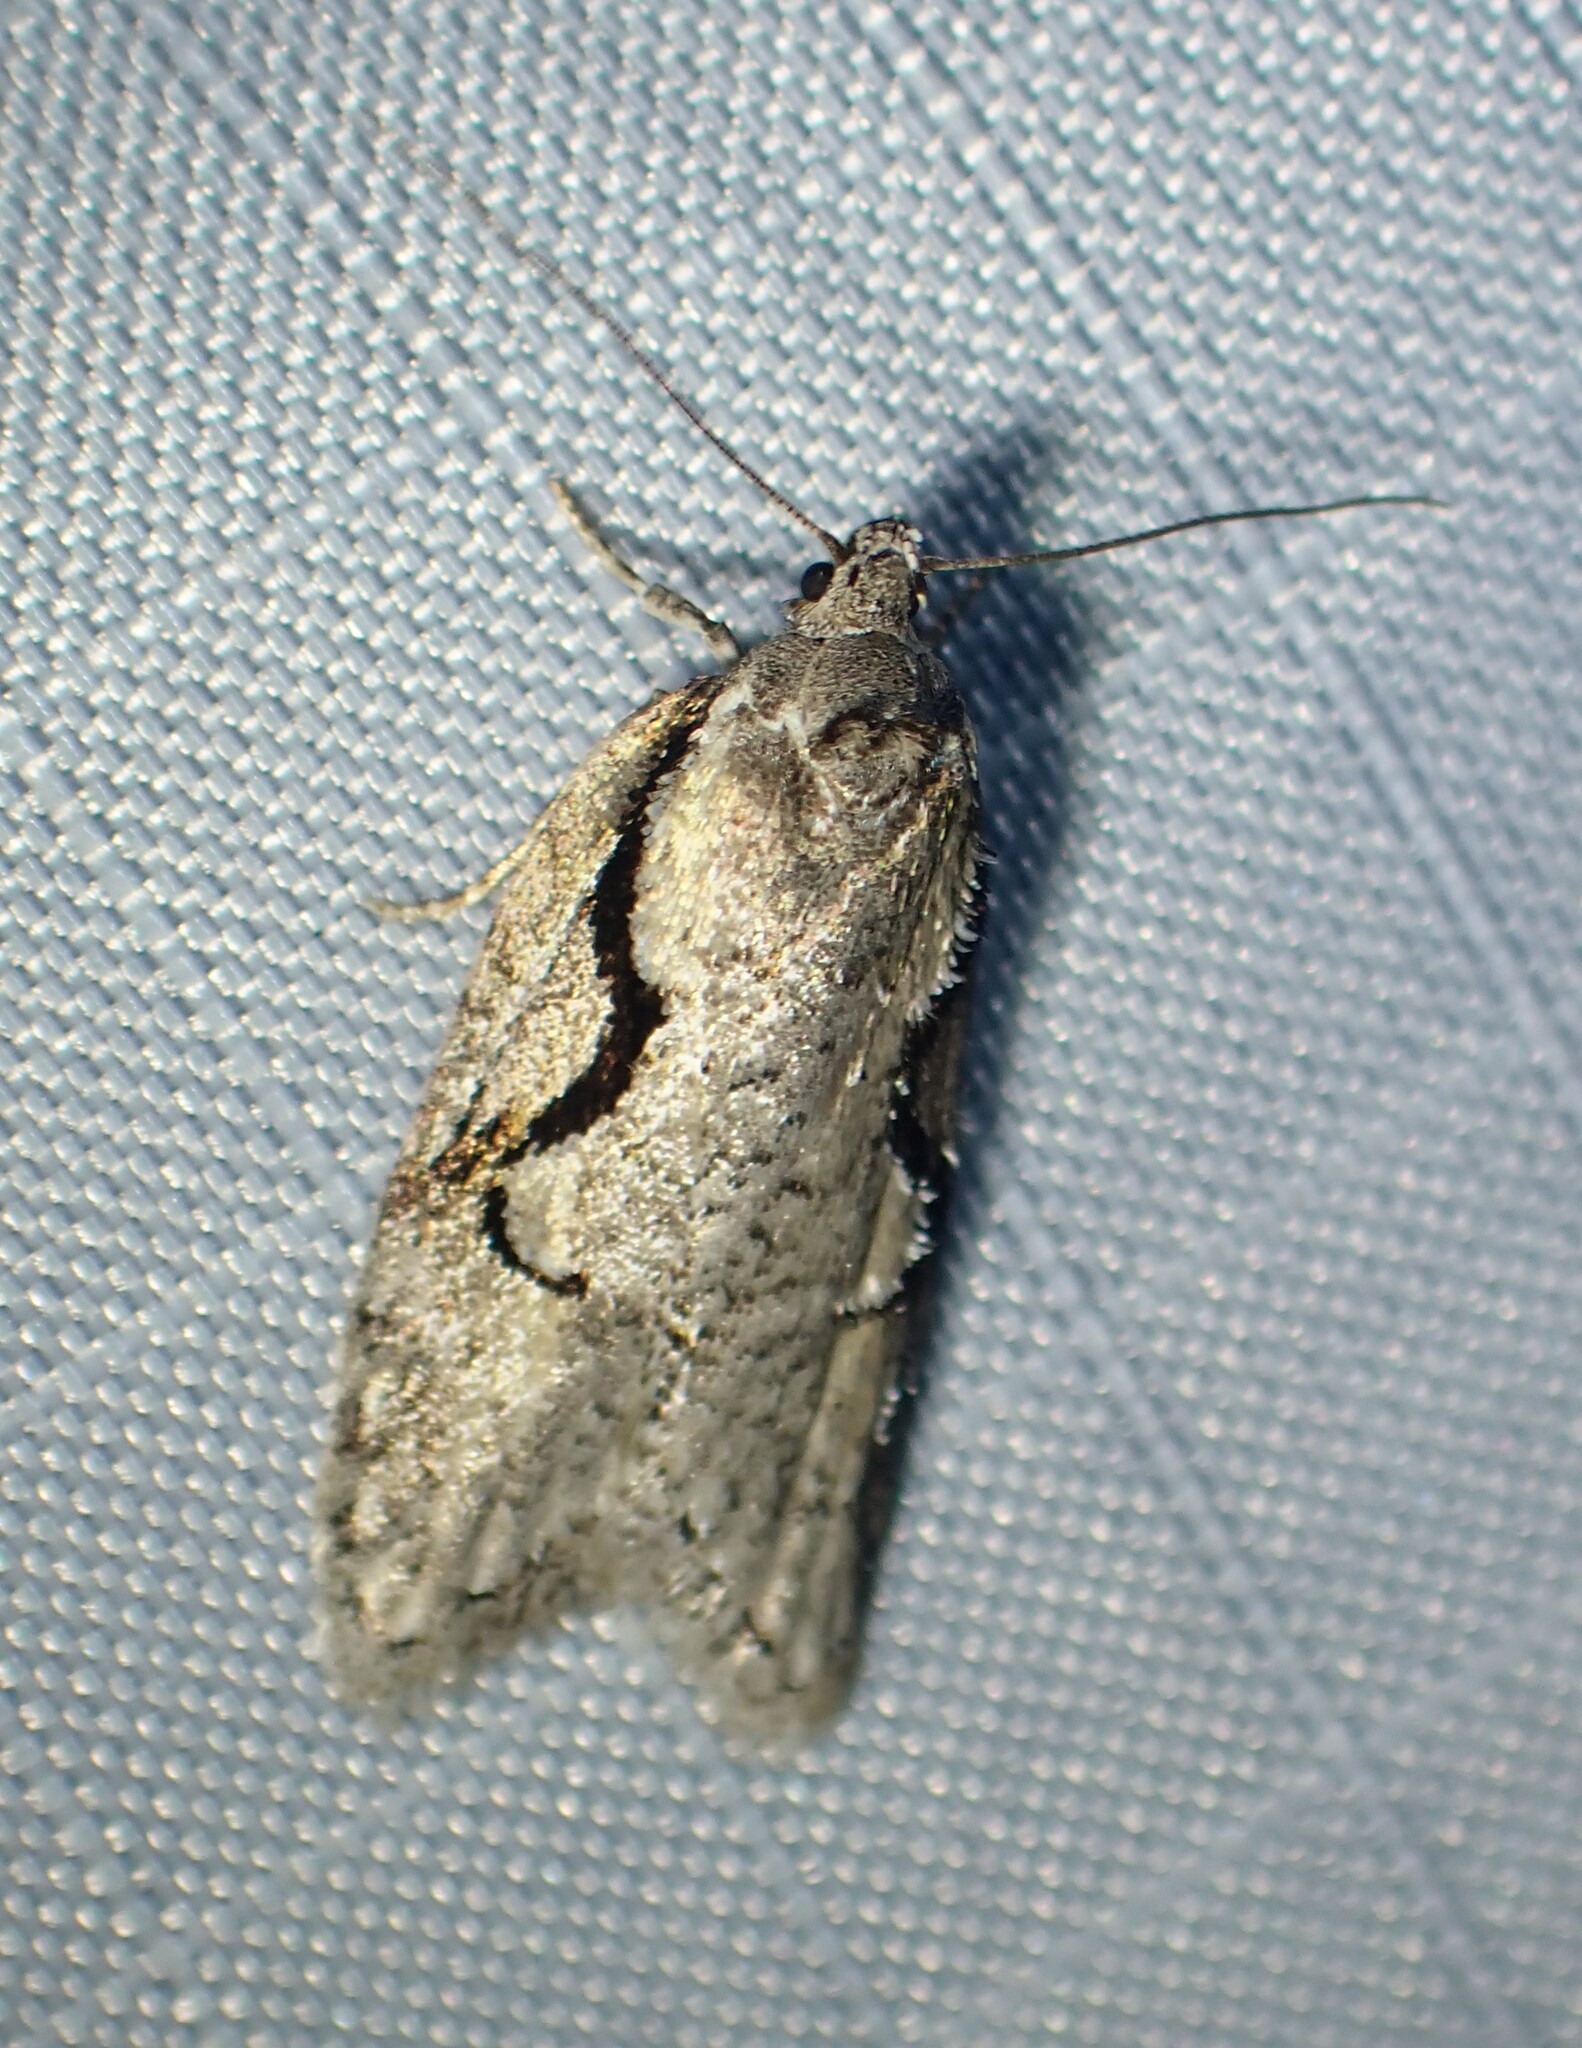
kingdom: Animalia
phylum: Arthropoda
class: Insecta
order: Lepidoptera
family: Depressariidae
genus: Semioscopis
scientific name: Semioscopis packardella
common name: Packard's concealer moth
